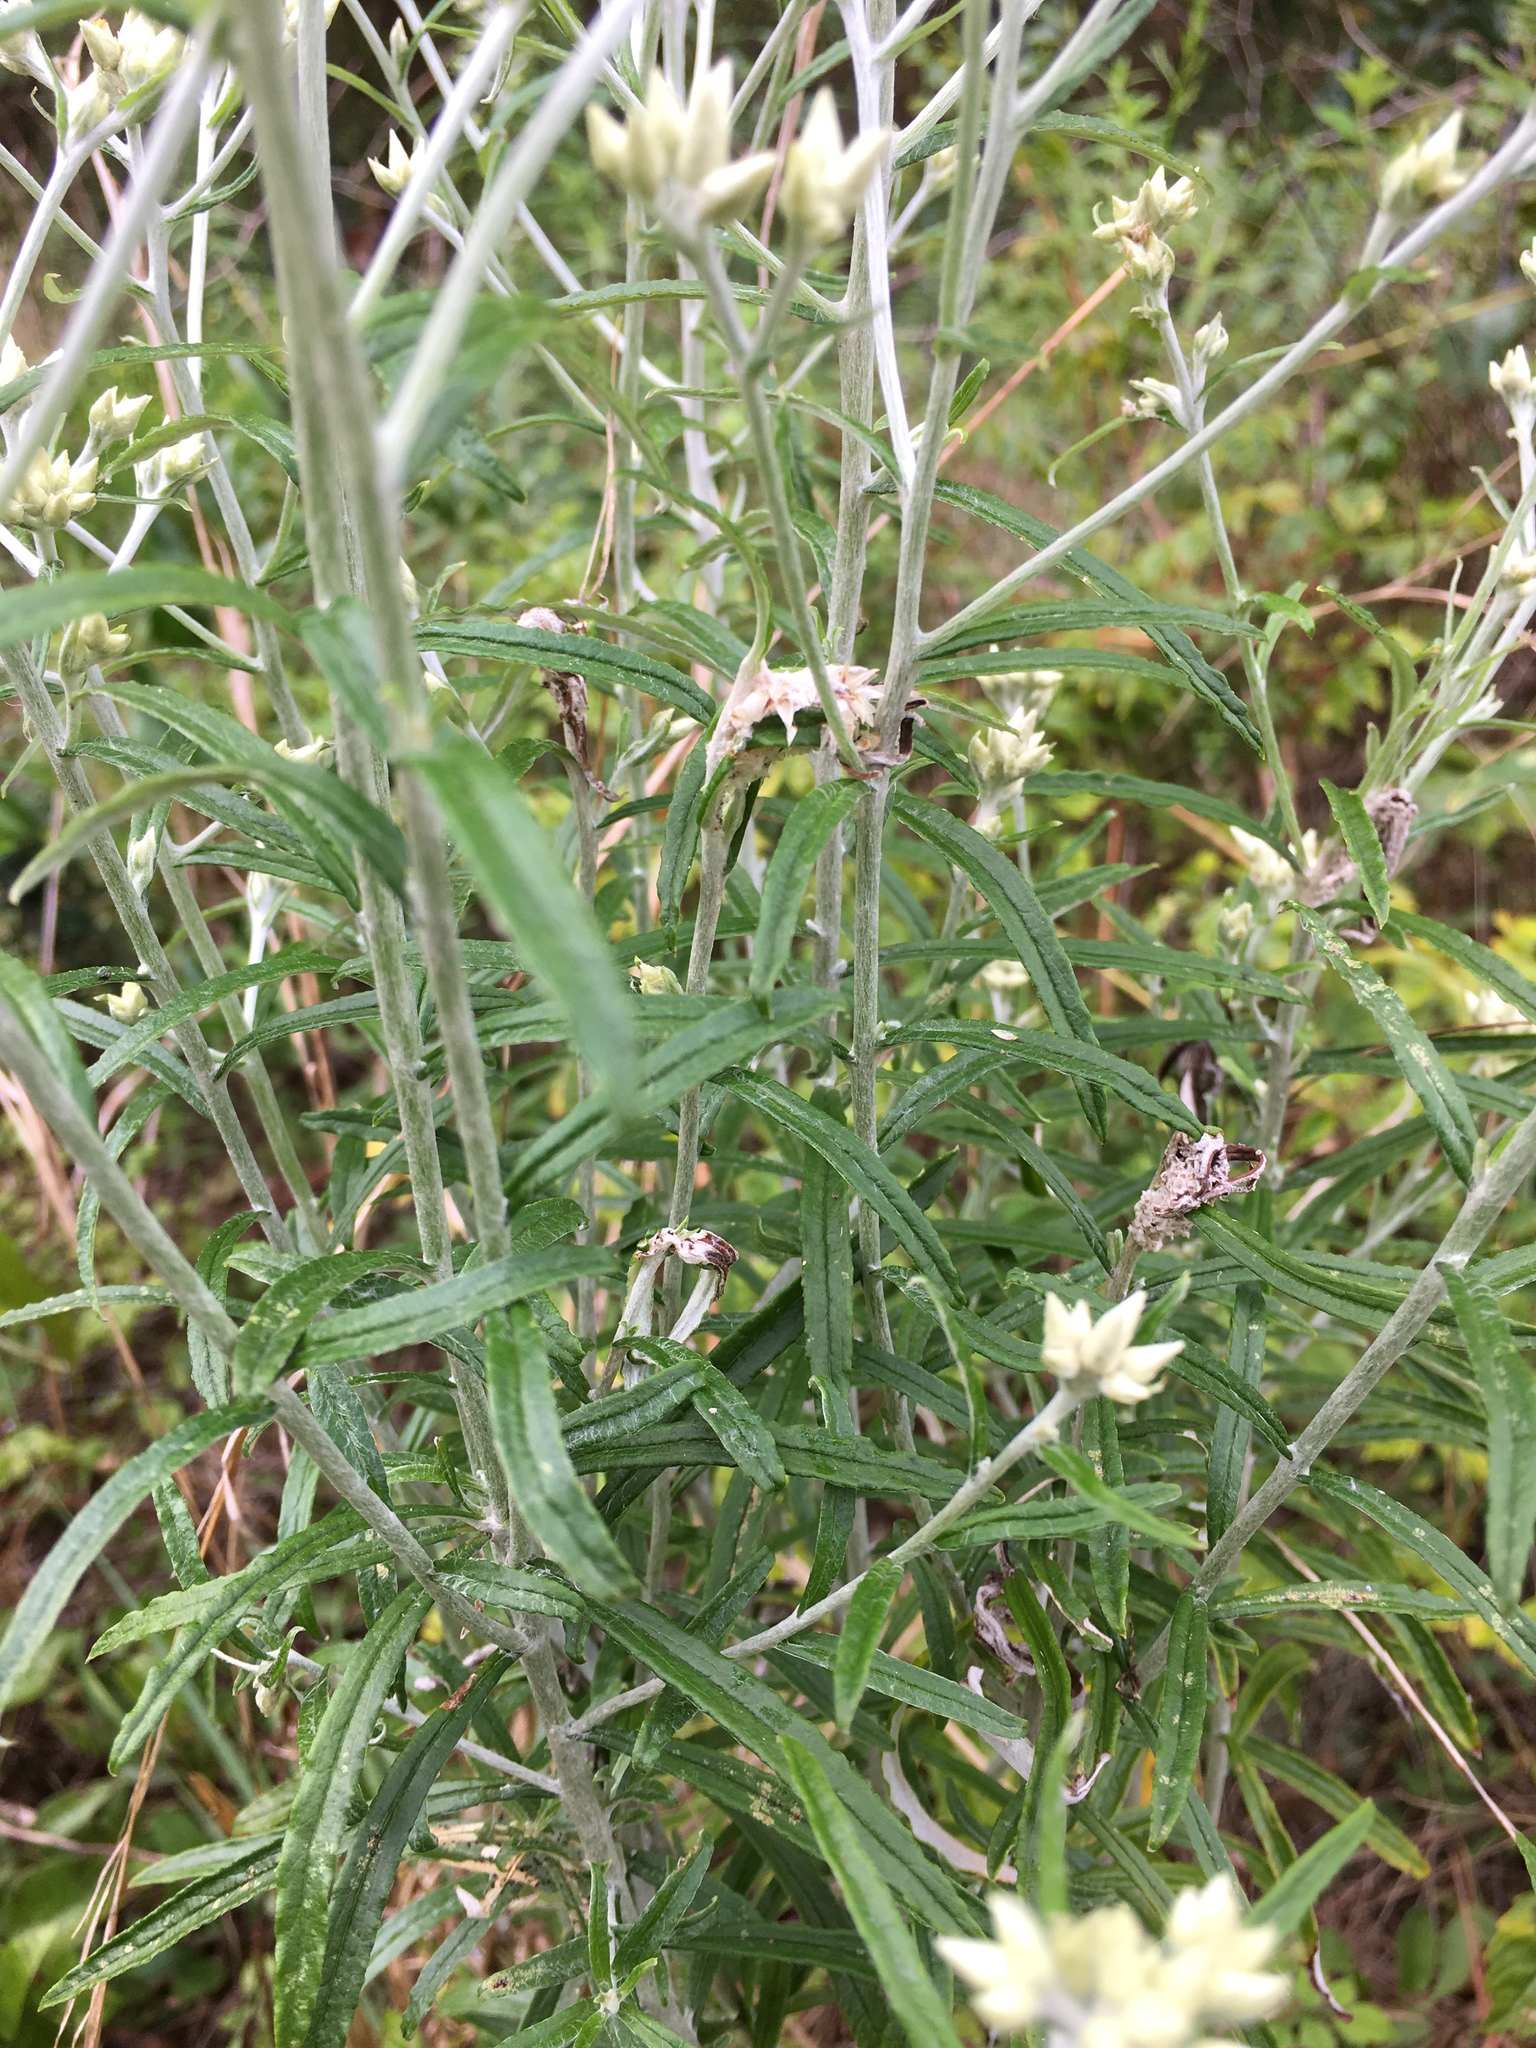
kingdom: Plantae
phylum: Tracheophyta
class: Magnoliopsida
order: Asterales
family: Asteraceae
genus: Pseudognaphalium
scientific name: Pseudognaphalium obtusifolium
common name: Eastern rabbit-tobacco
